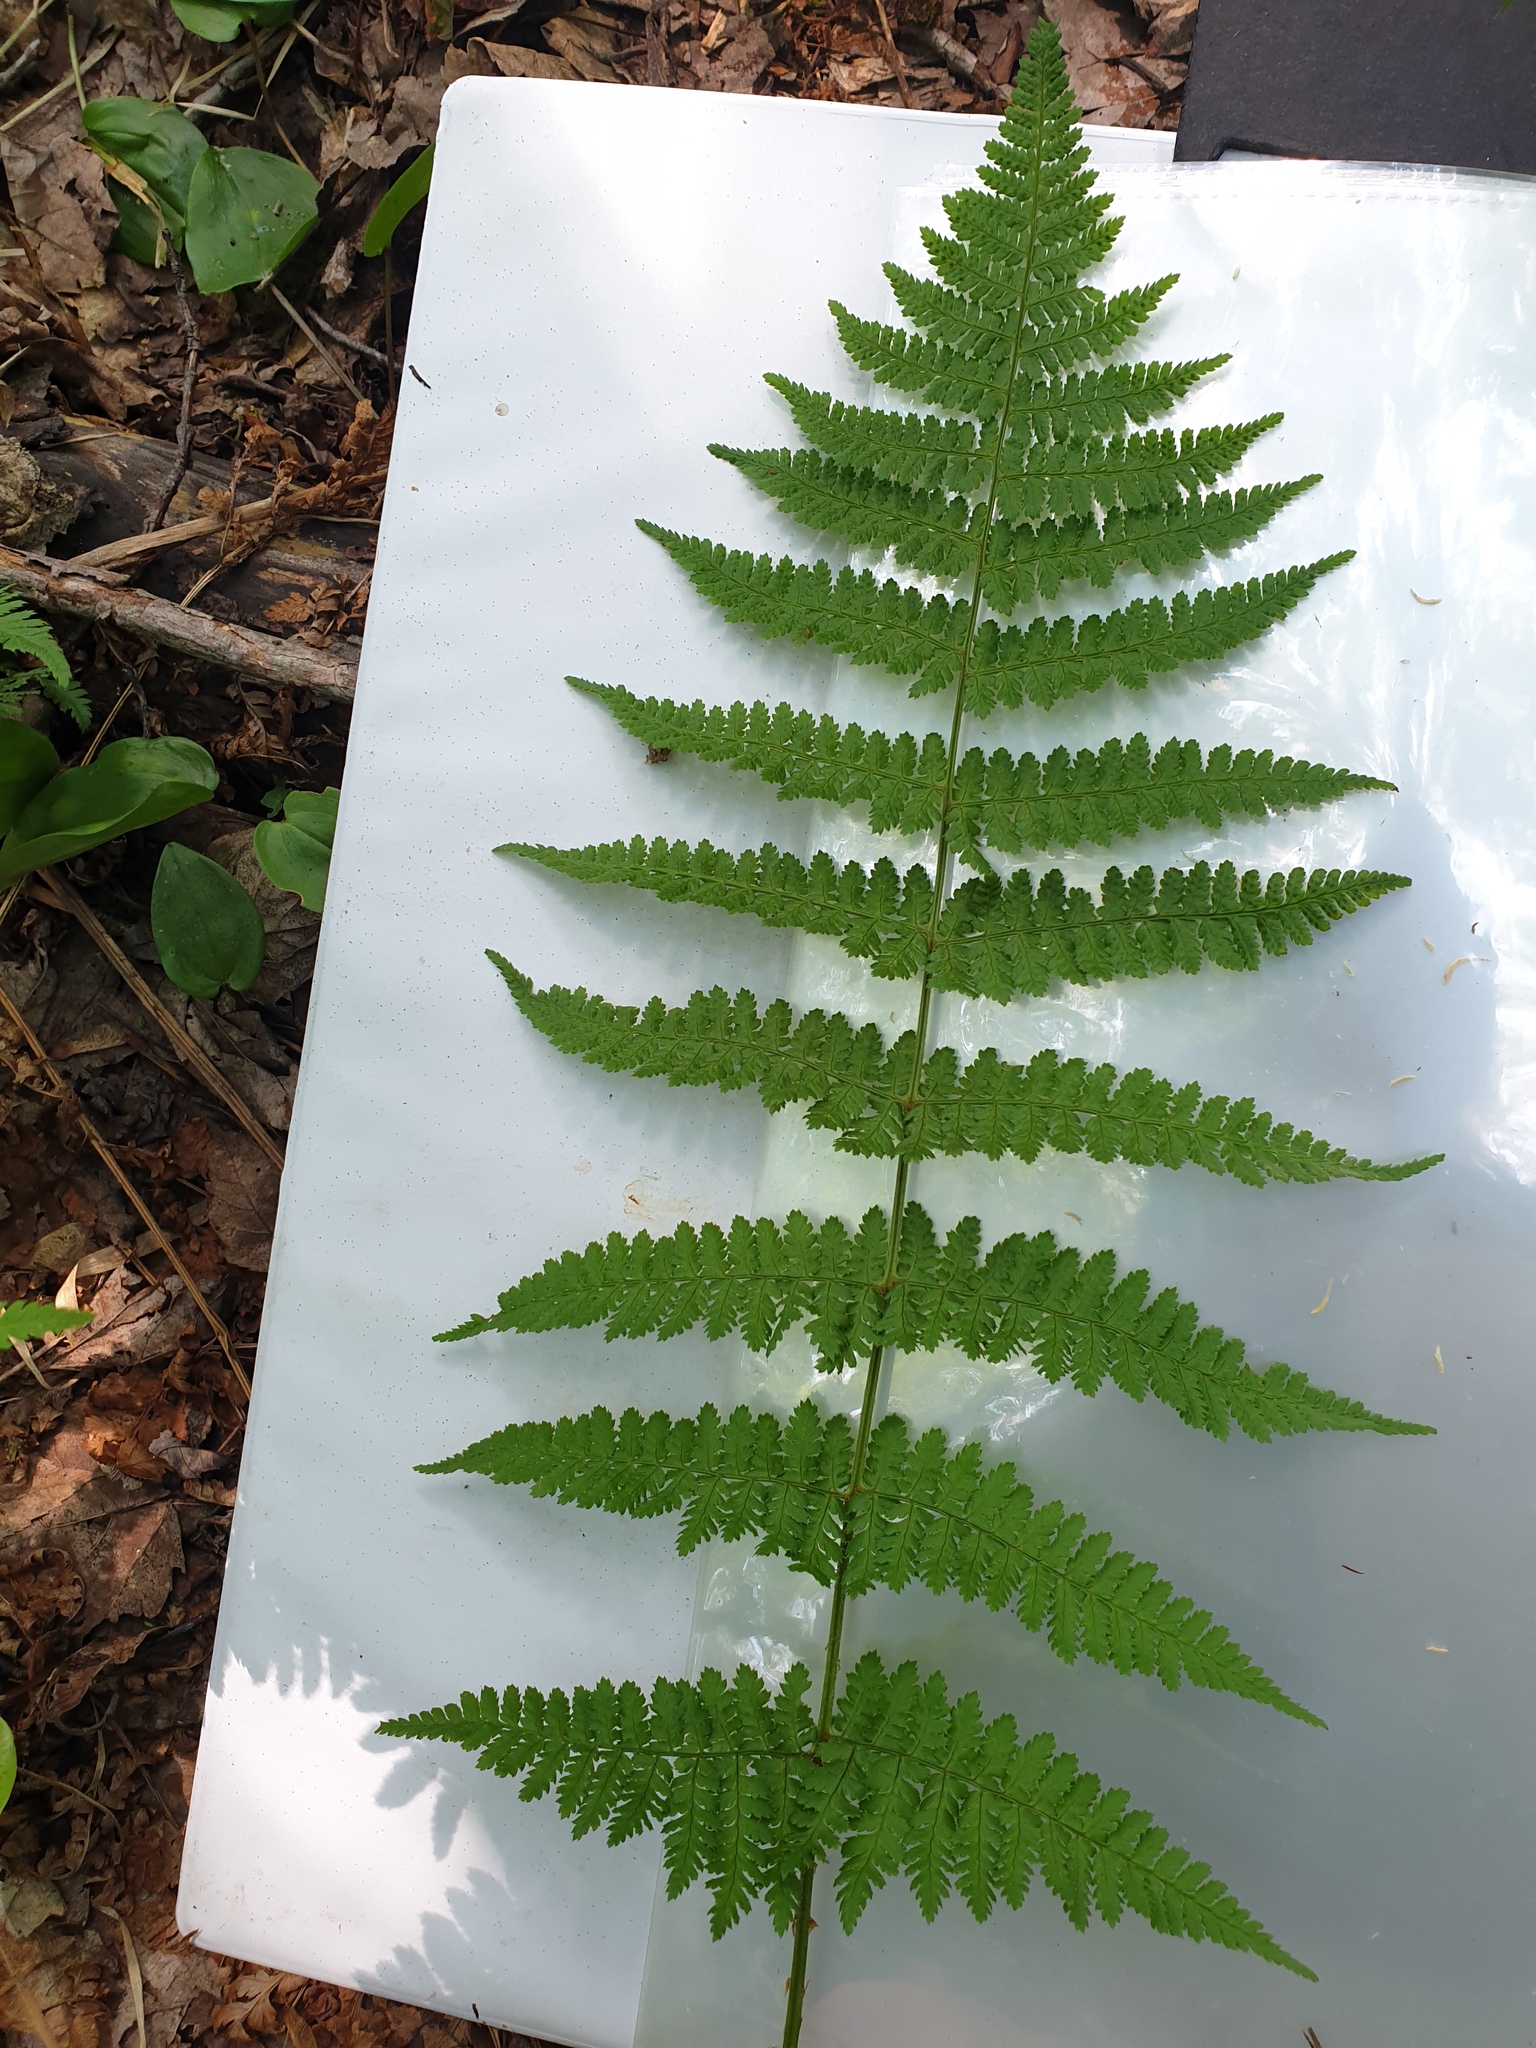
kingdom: Plantae
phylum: Tracheophyta
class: Polypodiopsida
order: Polypodiales
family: Dryopteridaceae
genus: Dryopteris
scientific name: Dryopteris intermedia
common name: Evergreen wood fern
